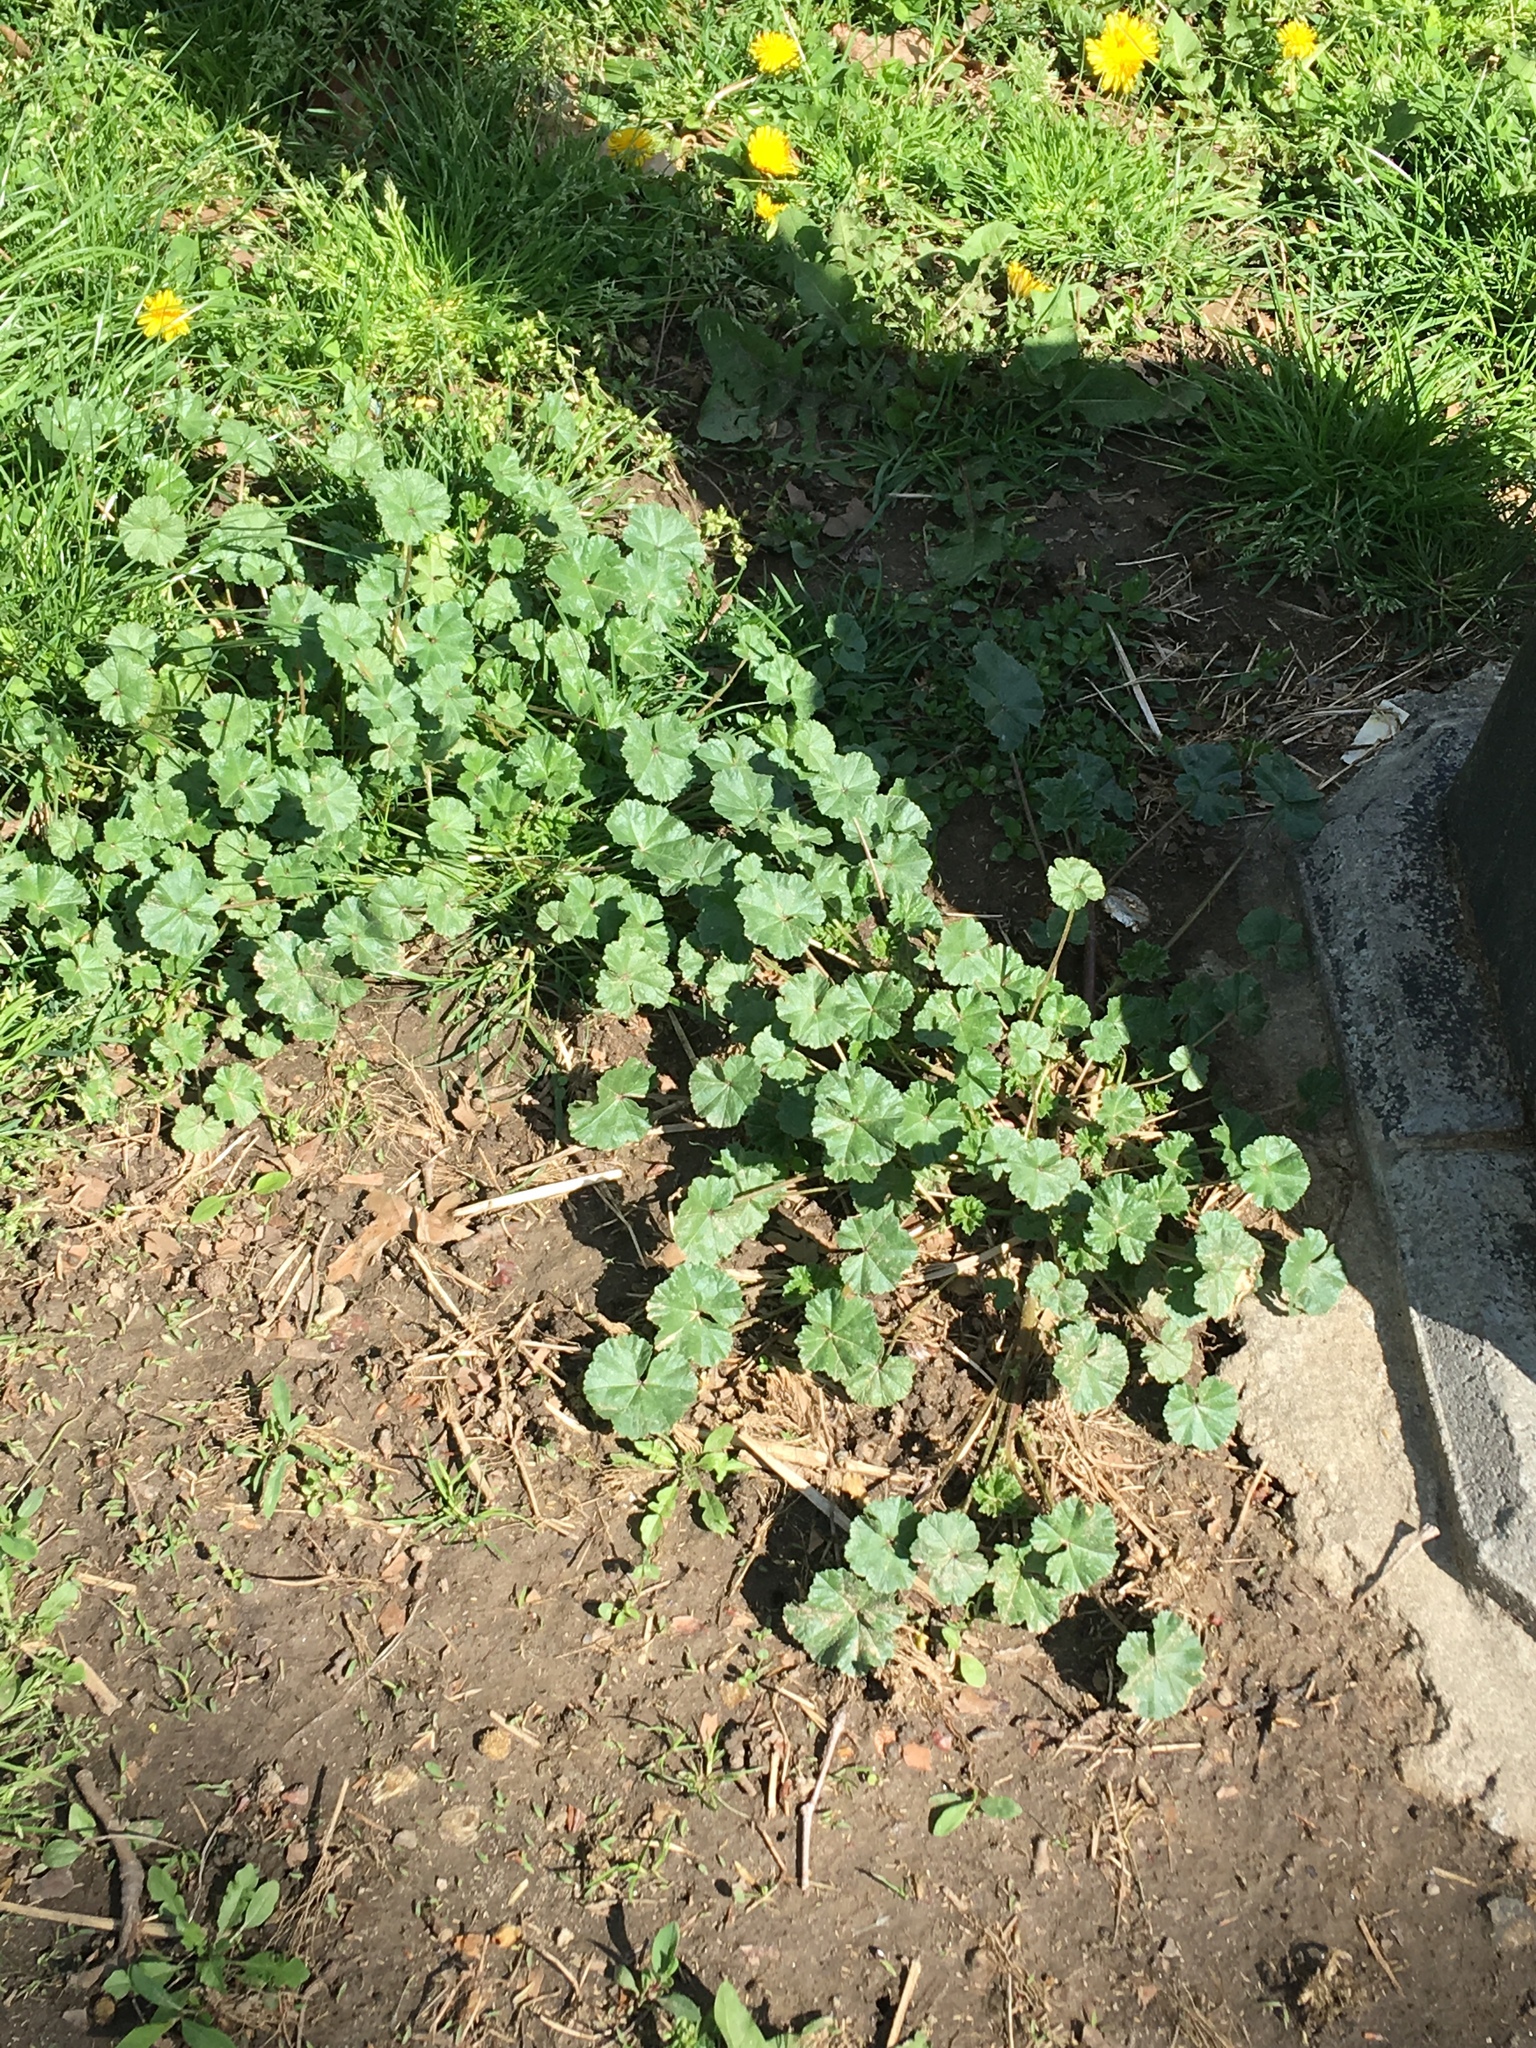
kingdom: Plantae
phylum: Tracheophyta
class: Magnoliopsida
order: Malvales
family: Malvaceae
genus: Malva
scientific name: Malva neglecta
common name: Common mallow
